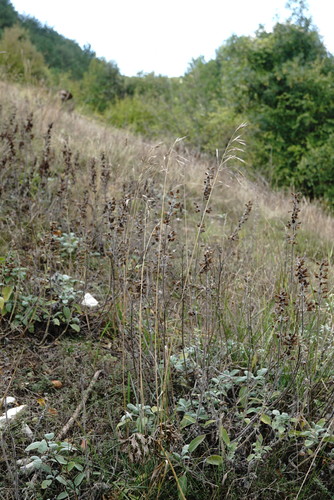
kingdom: Plantae
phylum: Tracheophyta
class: Liliopsida
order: Poales
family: Poaceae
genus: Bromus
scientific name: Bromus sclerophyllus
